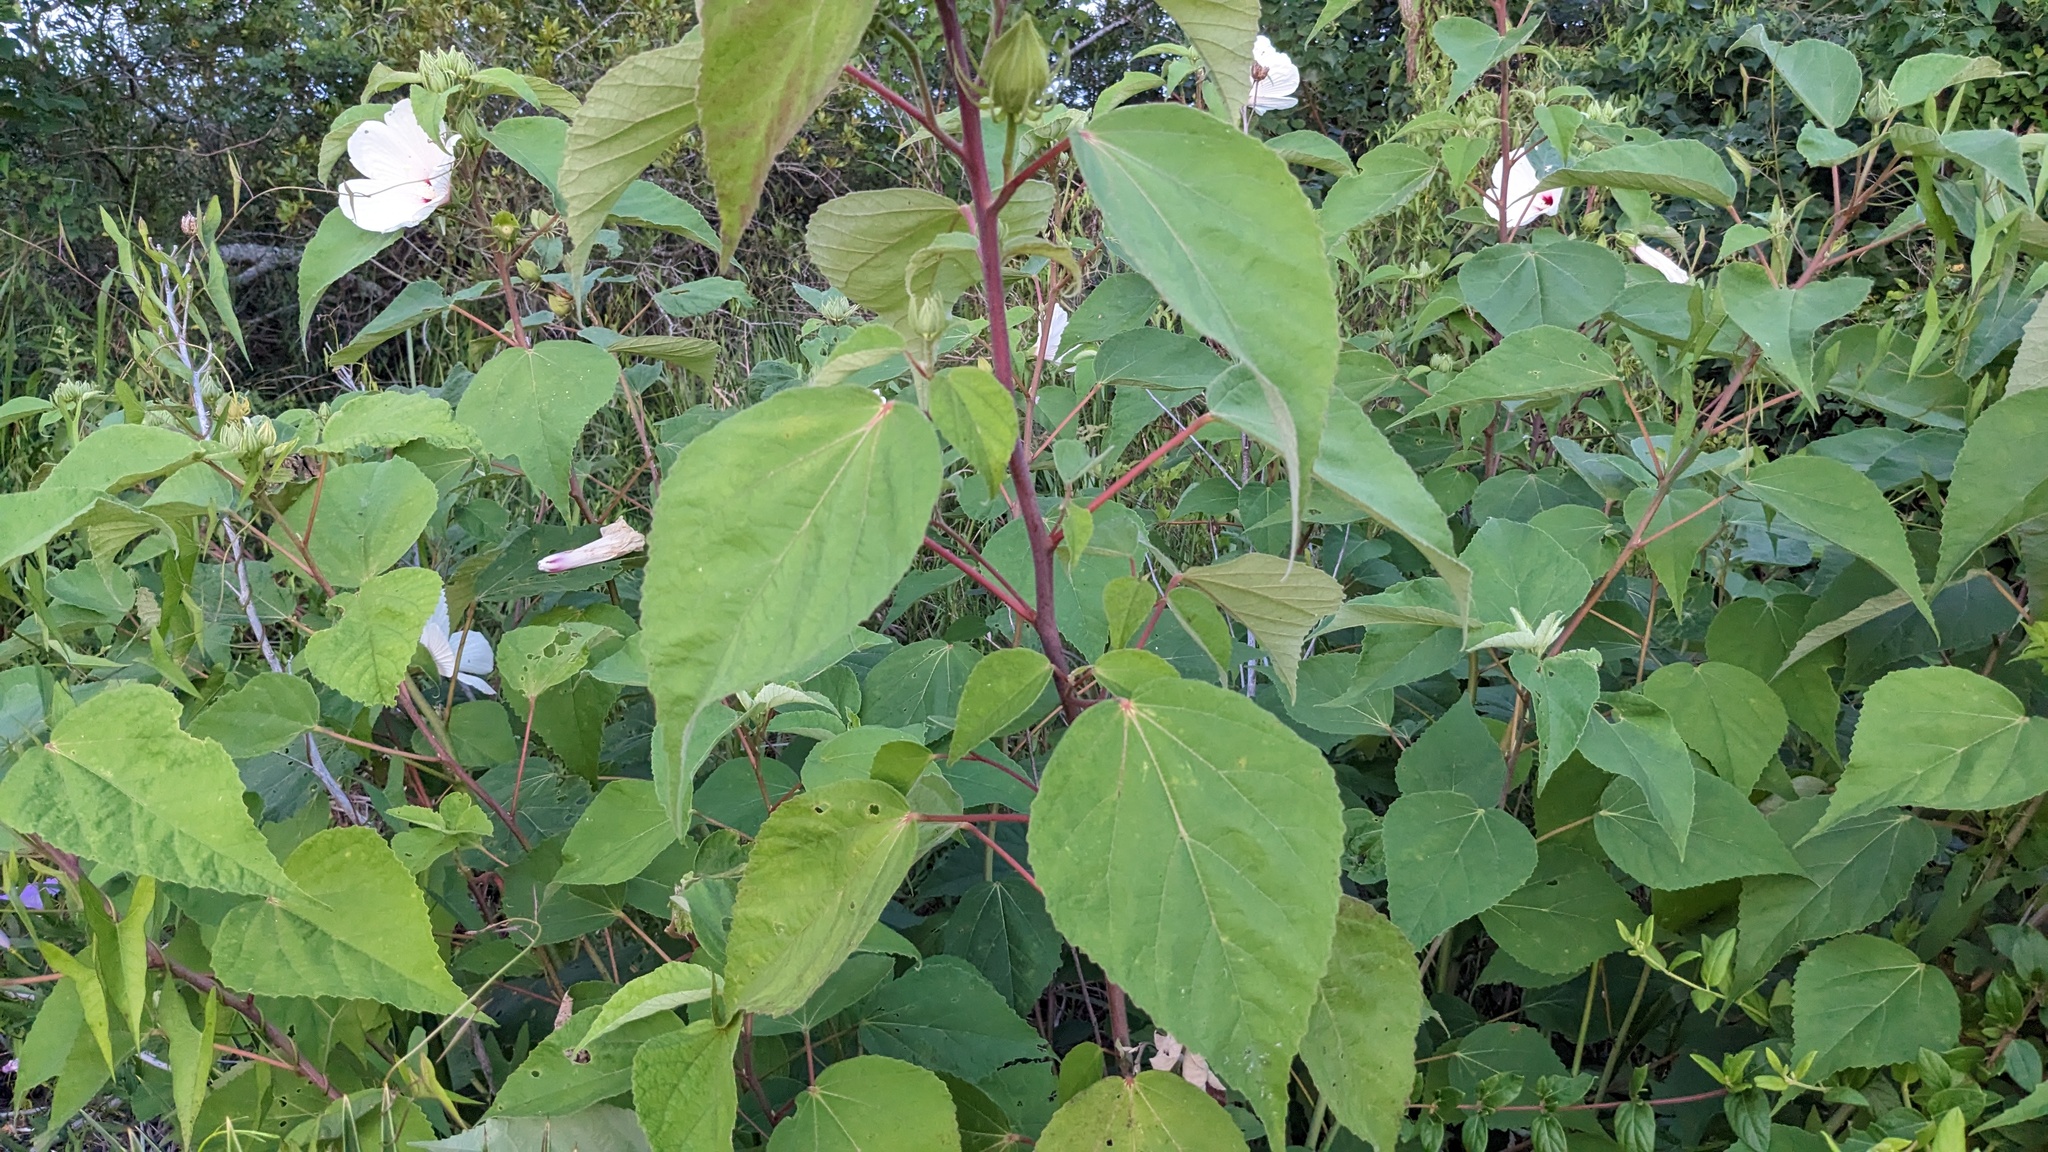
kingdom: Plantae
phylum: Tracheophyta
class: Magnoliopsida
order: Malvales
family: Malvaceae
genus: Hibiscus
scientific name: Hibiscus moscheutos
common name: Common rose-mallow
